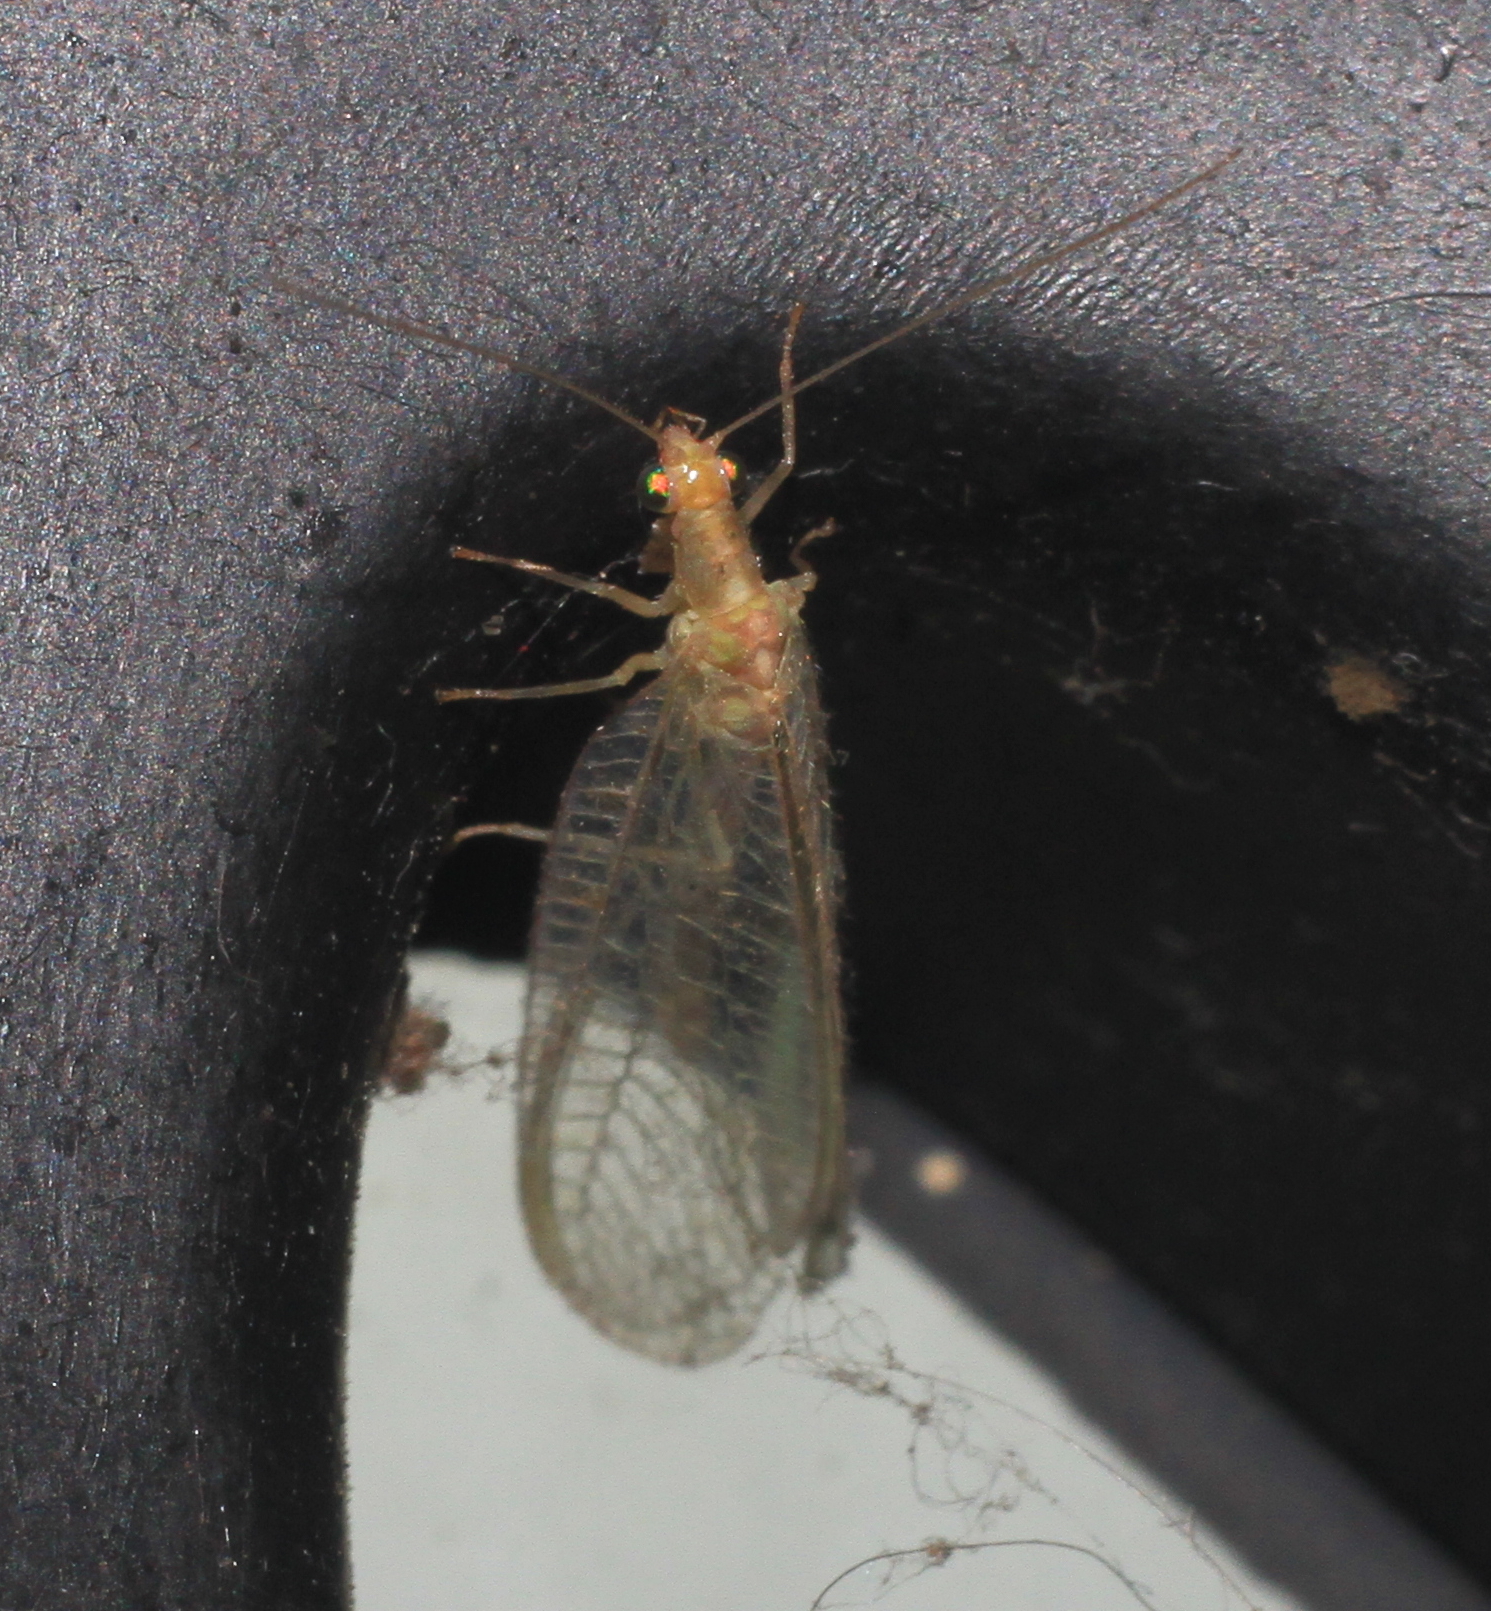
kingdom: Animalia
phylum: Arthropoda
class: Insecta
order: Neuroptera
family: Chrysopidae
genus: Chrysoperla
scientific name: Chrysoperla
